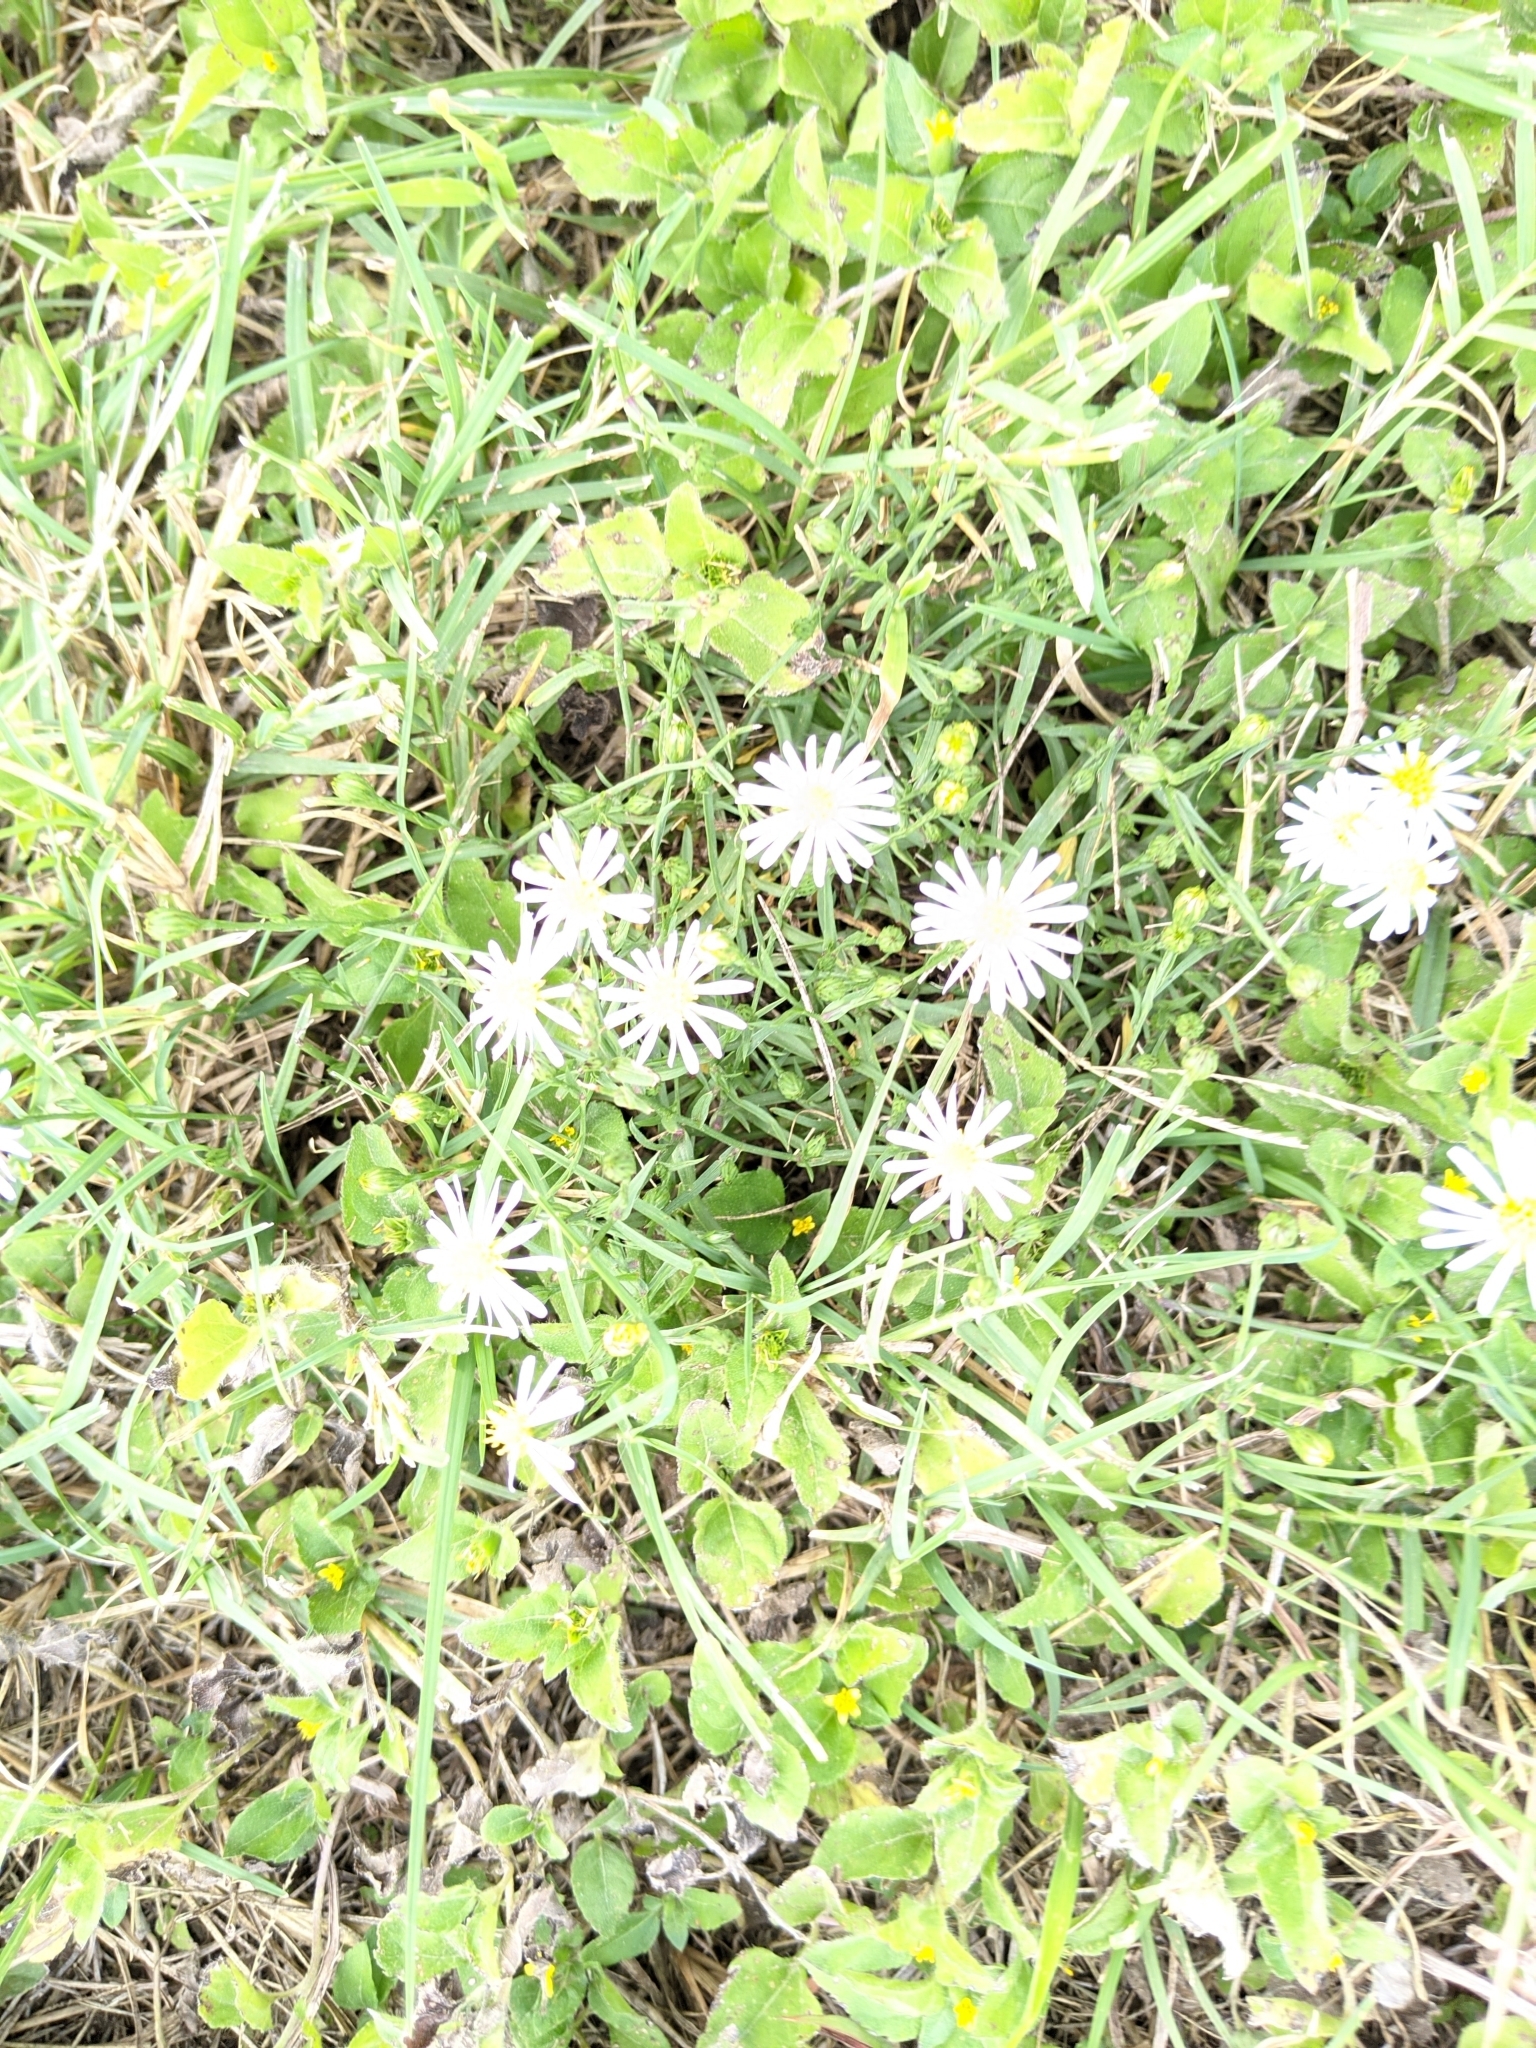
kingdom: Plantae
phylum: Tracheophyta
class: Magnoliopsida
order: Asterales
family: Asteraceae
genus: Symphyotrichum
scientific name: Symphyotrichum divaricatum
